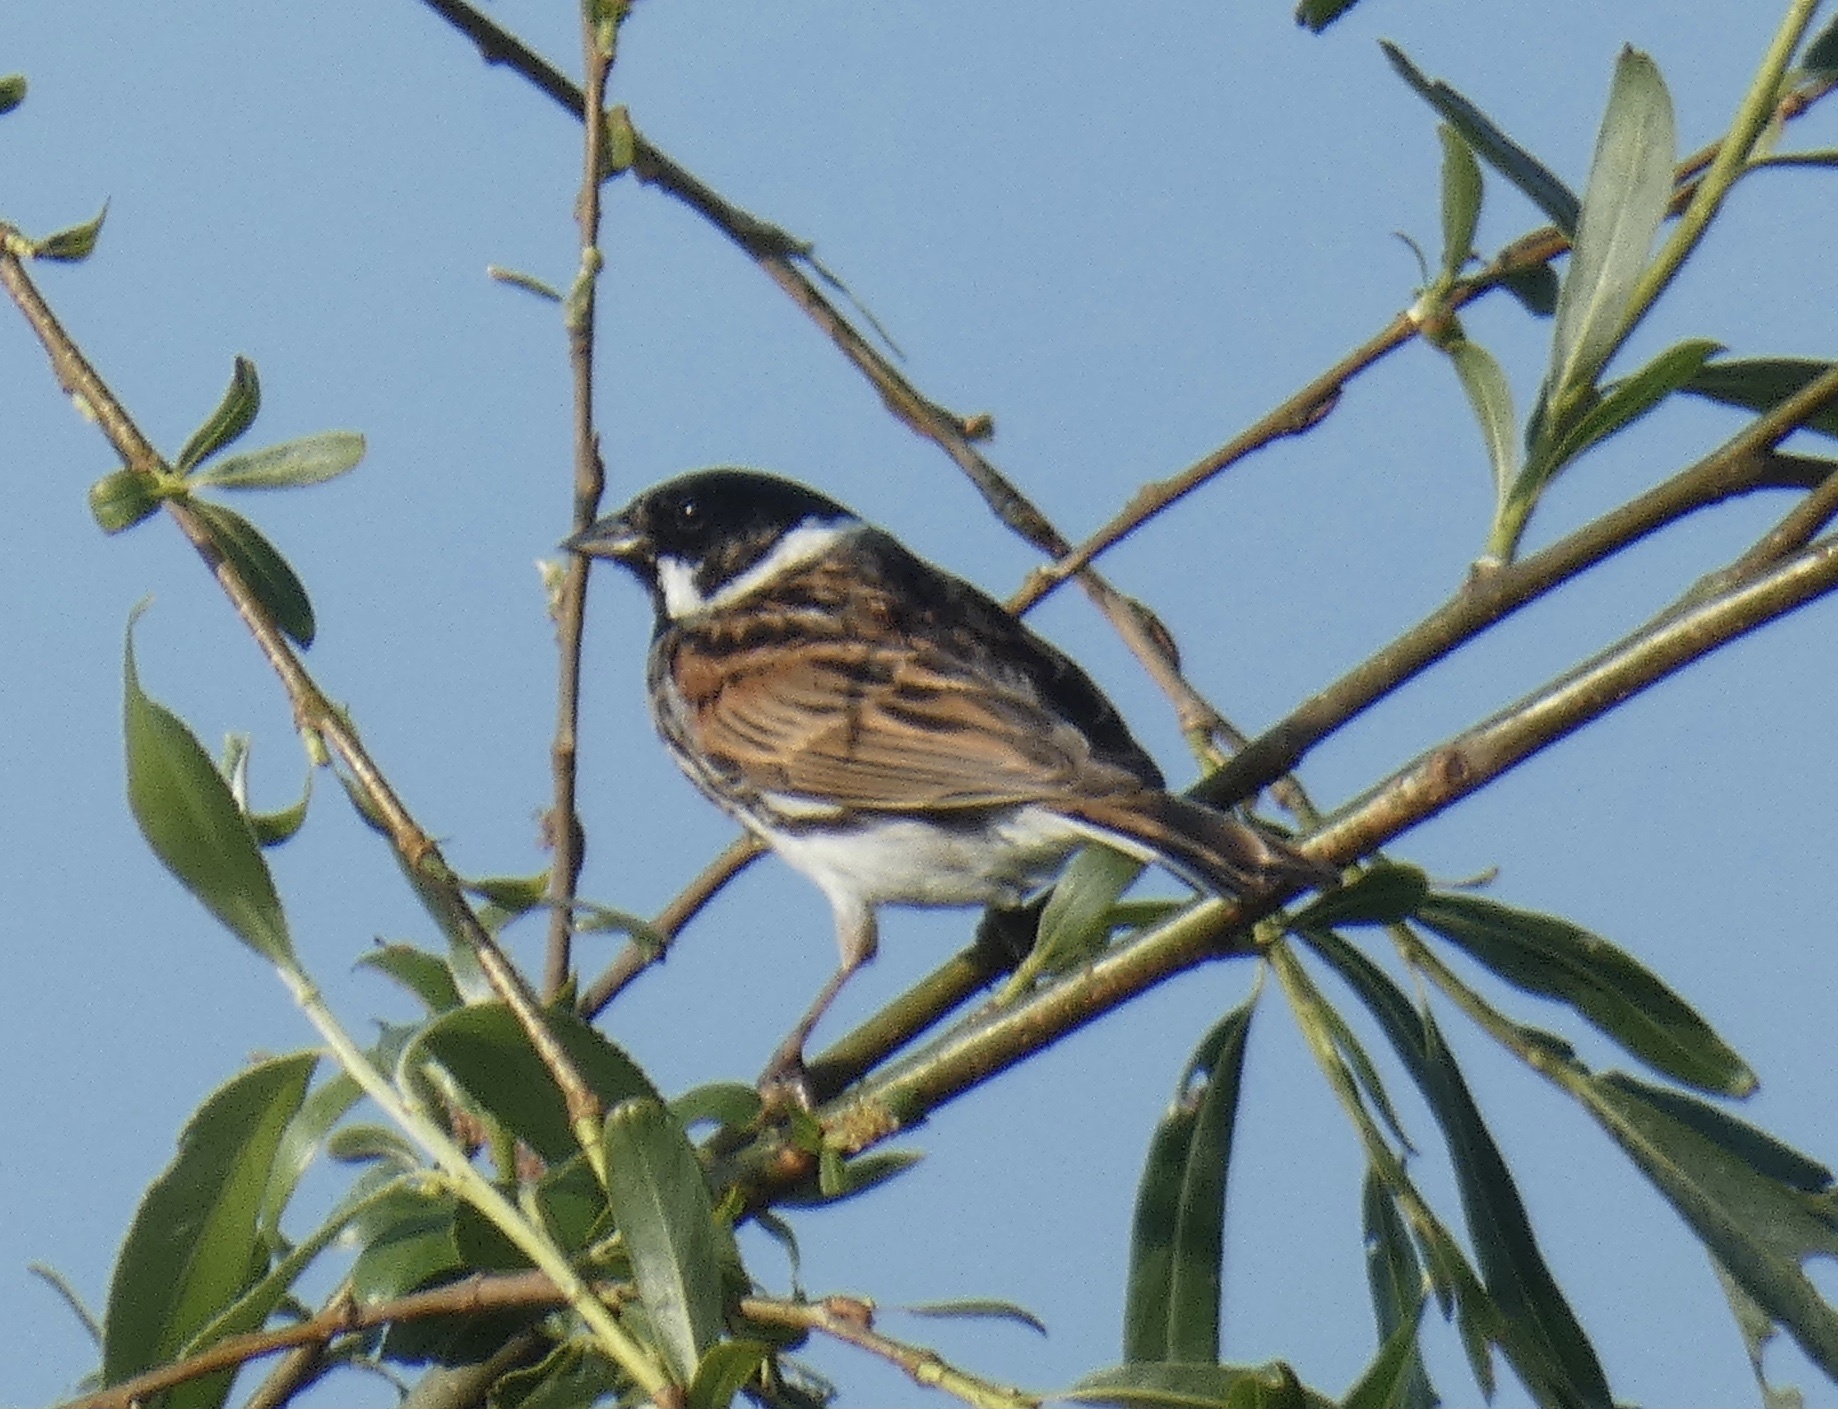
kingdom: Animalia
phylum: Chordata
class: Aves
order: Passeriformes
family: Emberizidae
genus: Emberiza
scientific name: Emberiza schoeniclus
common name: Reed bunting
